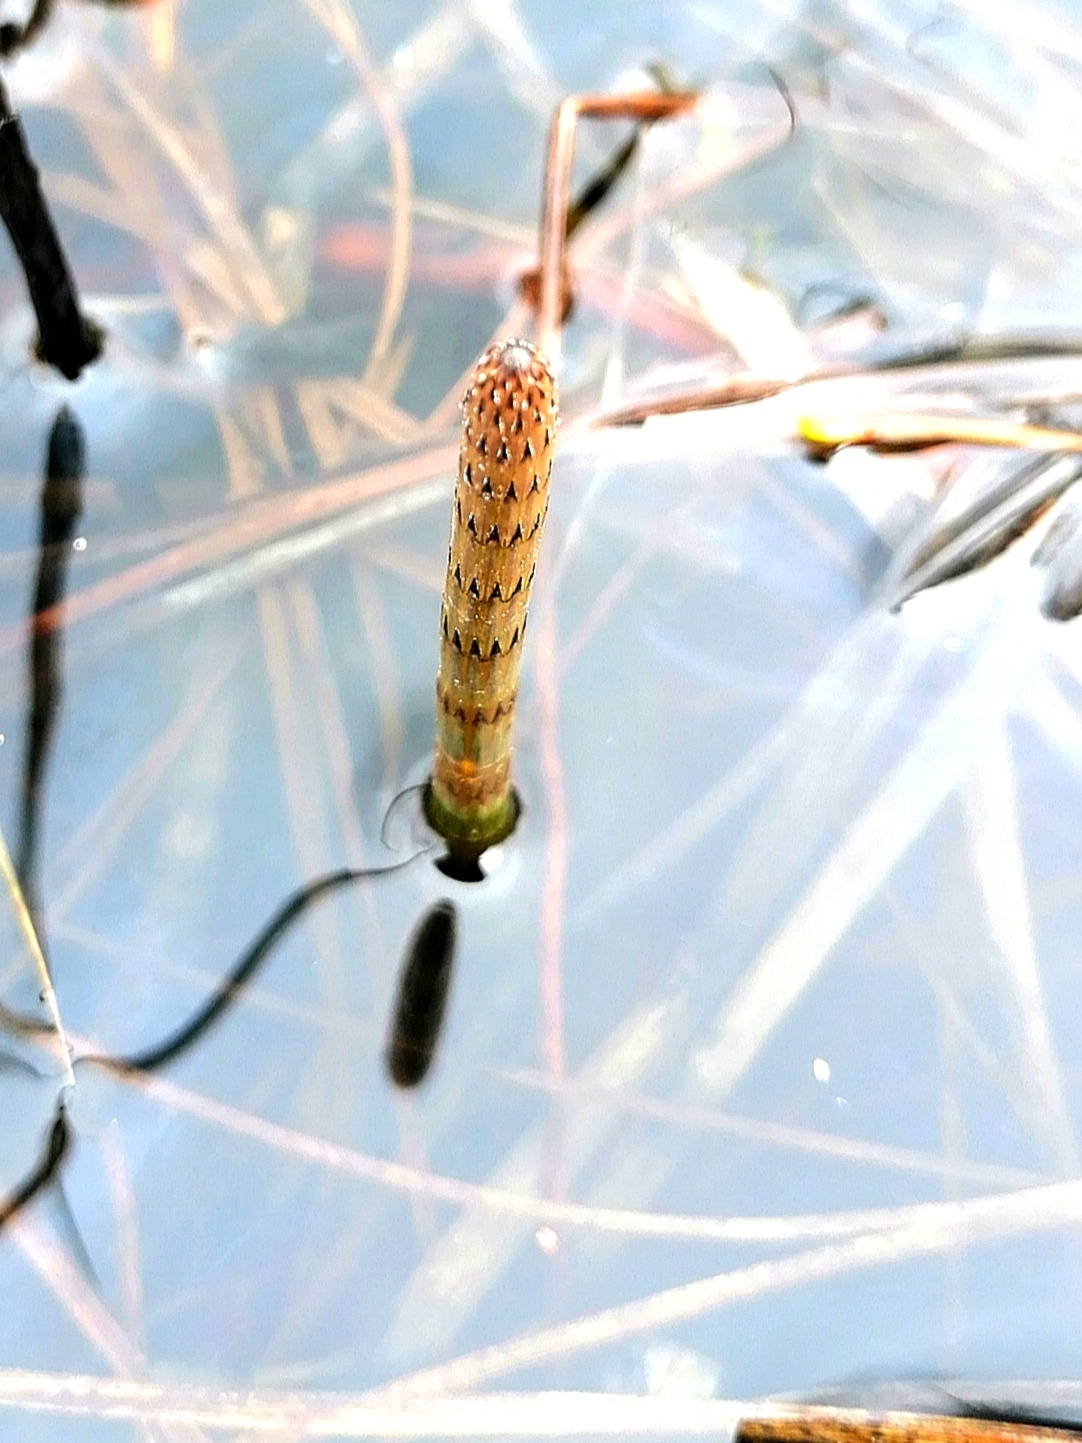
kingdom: Plantae
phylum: Tracheophyta
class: Polypodiopsida
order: Equisetales
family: Equisetaceae
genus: Equisetum
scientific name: Equisetum fluviatile
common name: Water horsetail
